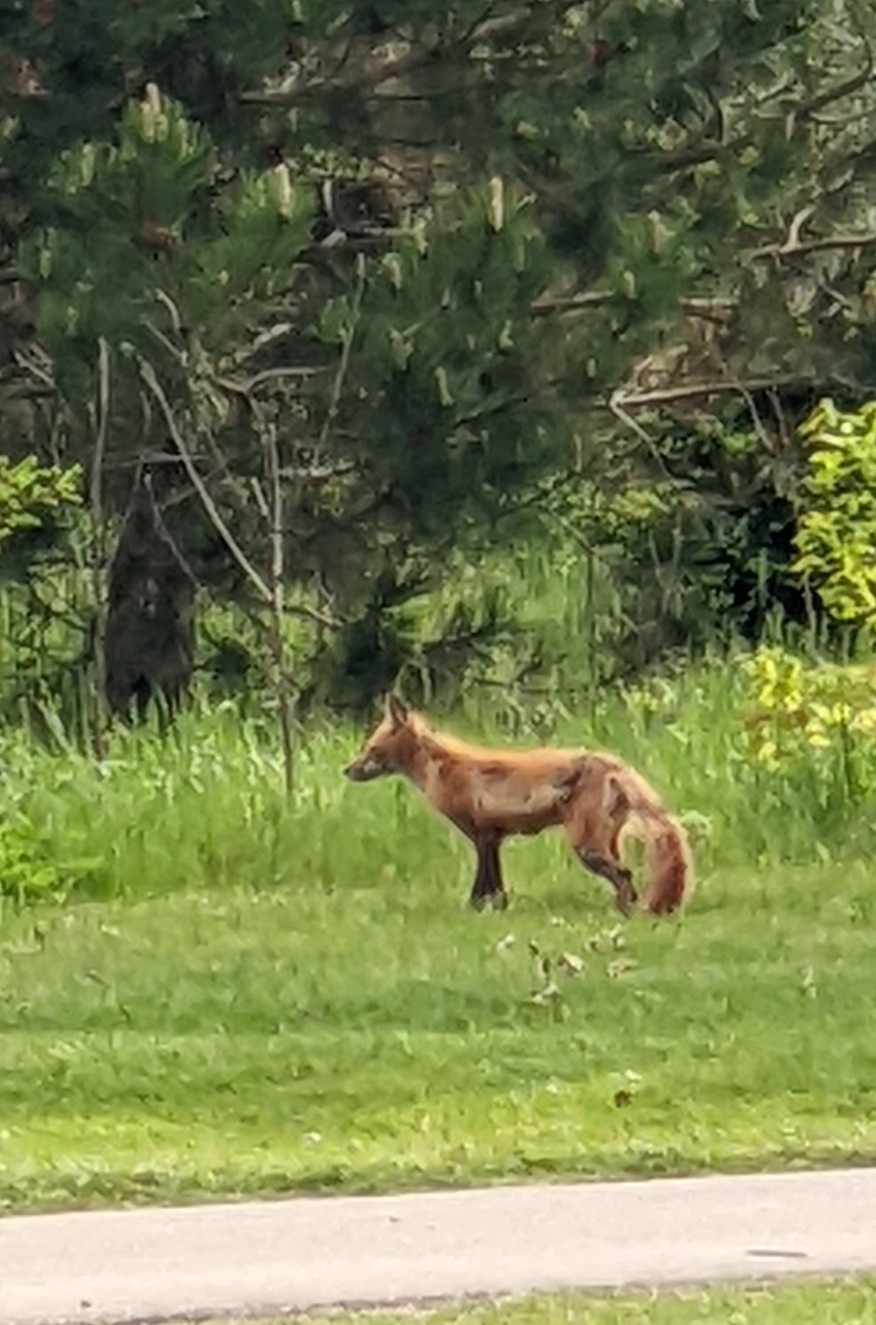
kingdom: Animalia
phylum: Chordata
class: Mammalia
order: Carnivora
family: Canidae
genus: Vulpes
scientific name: Vulpes vulpes
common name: Red fox
